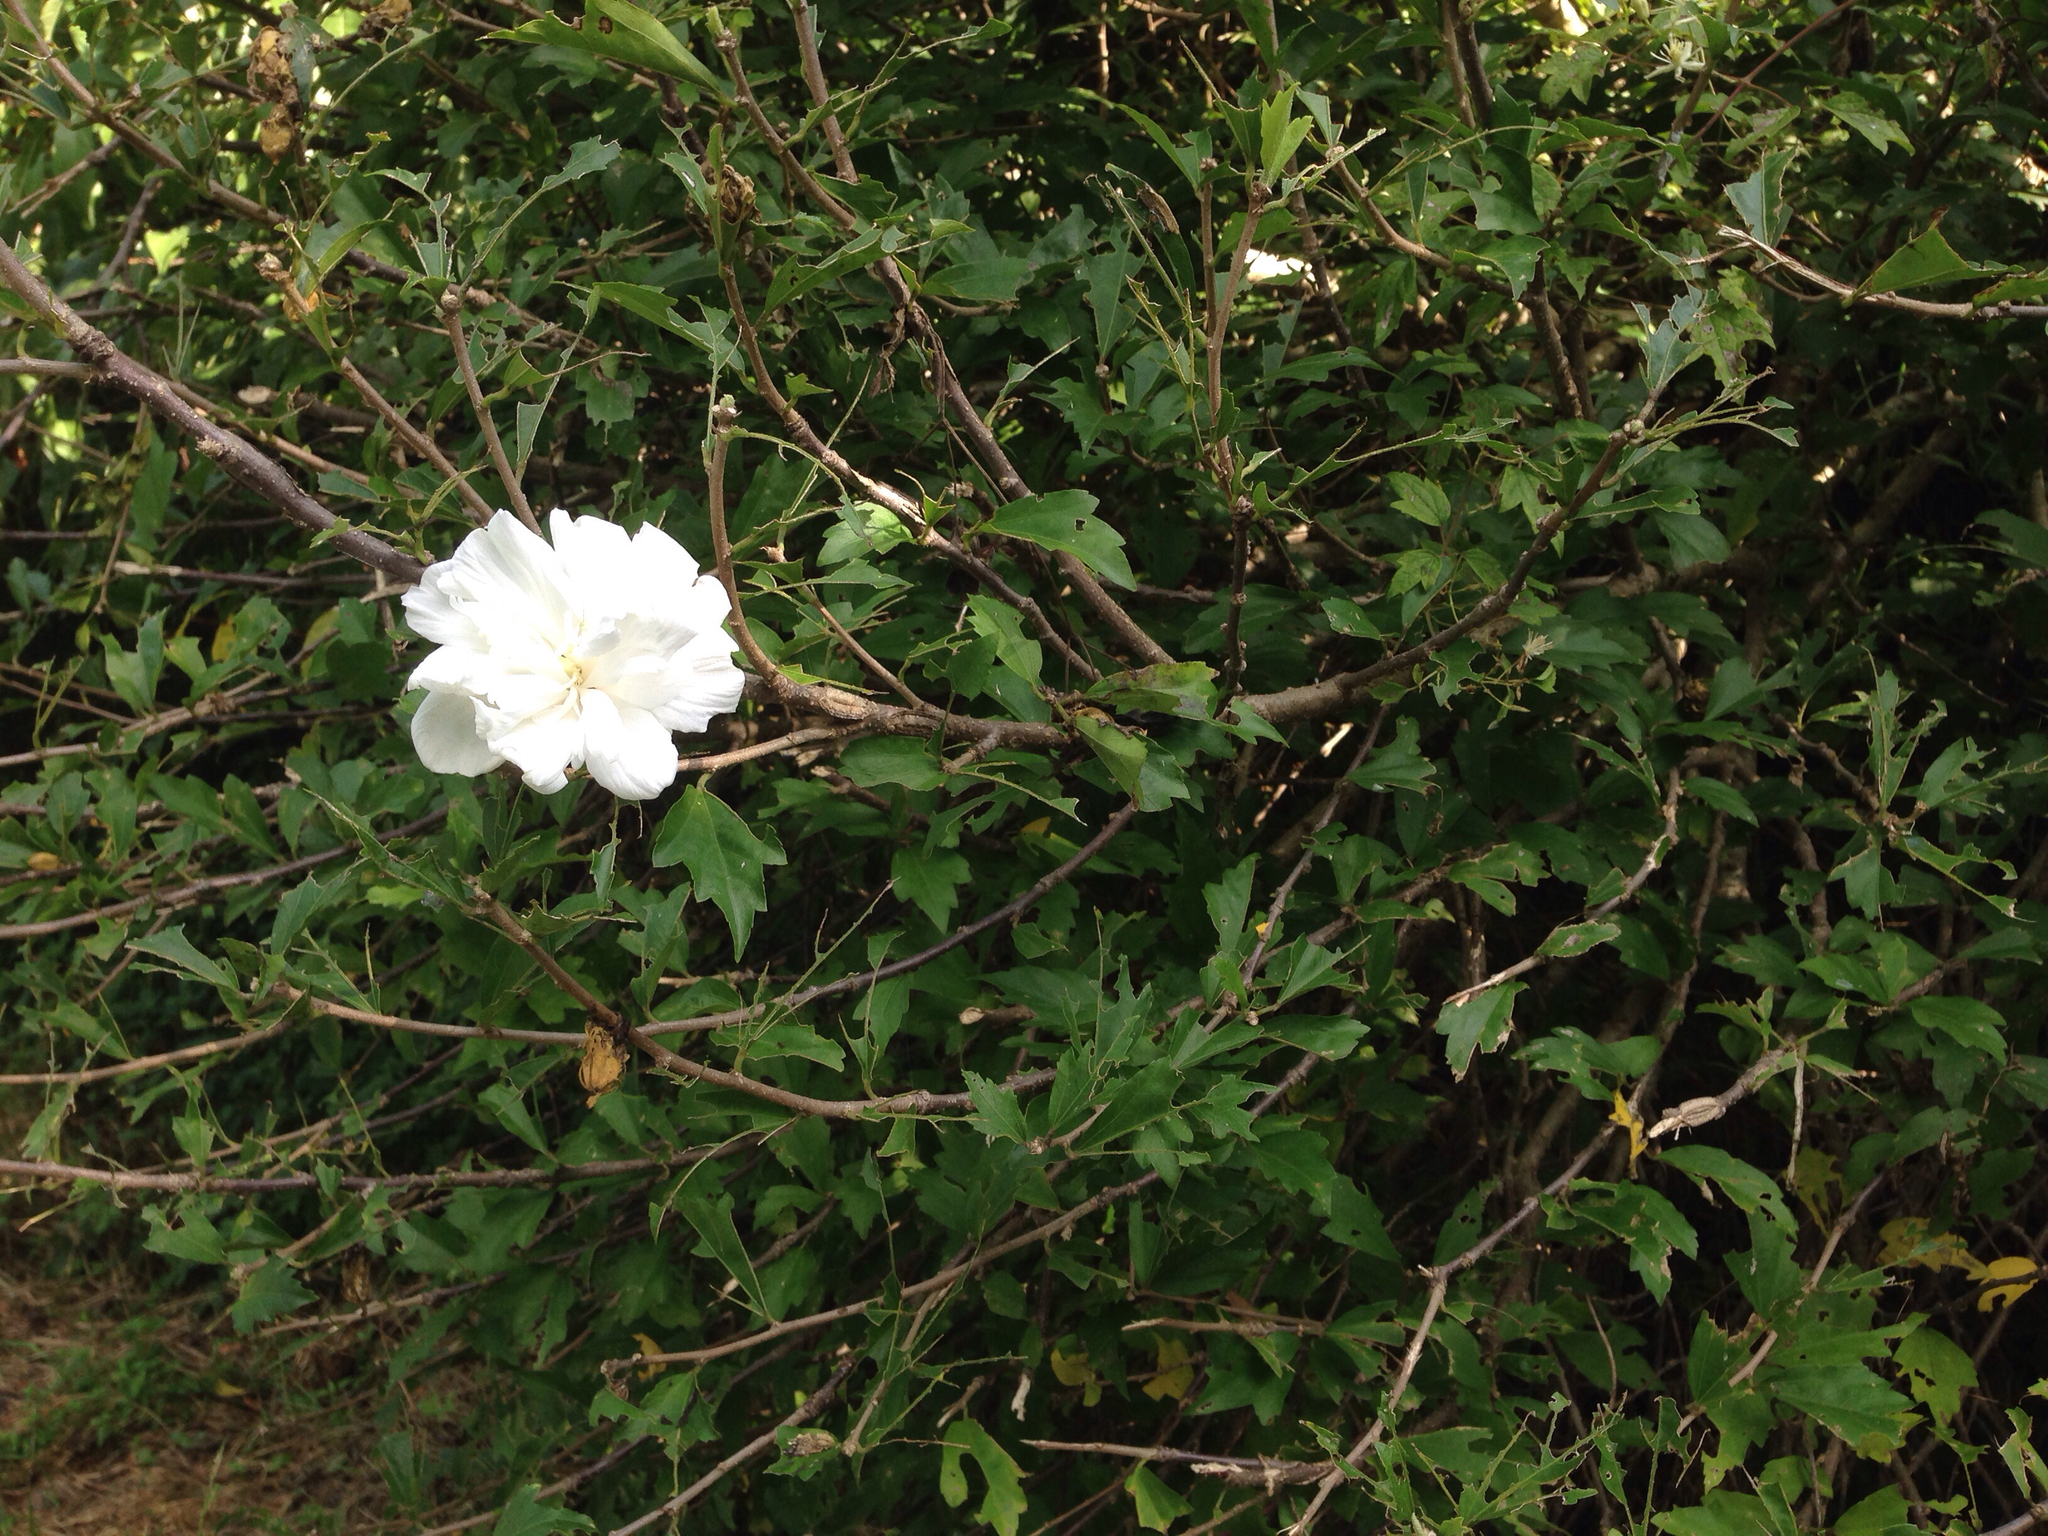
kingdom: Plantae
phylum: Tracheophyta
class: Magnoliopsida
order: Malvales
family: Malvaceae
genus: Hibiscus
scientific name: Hibiscus syriacus
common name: Syrian ketmia
